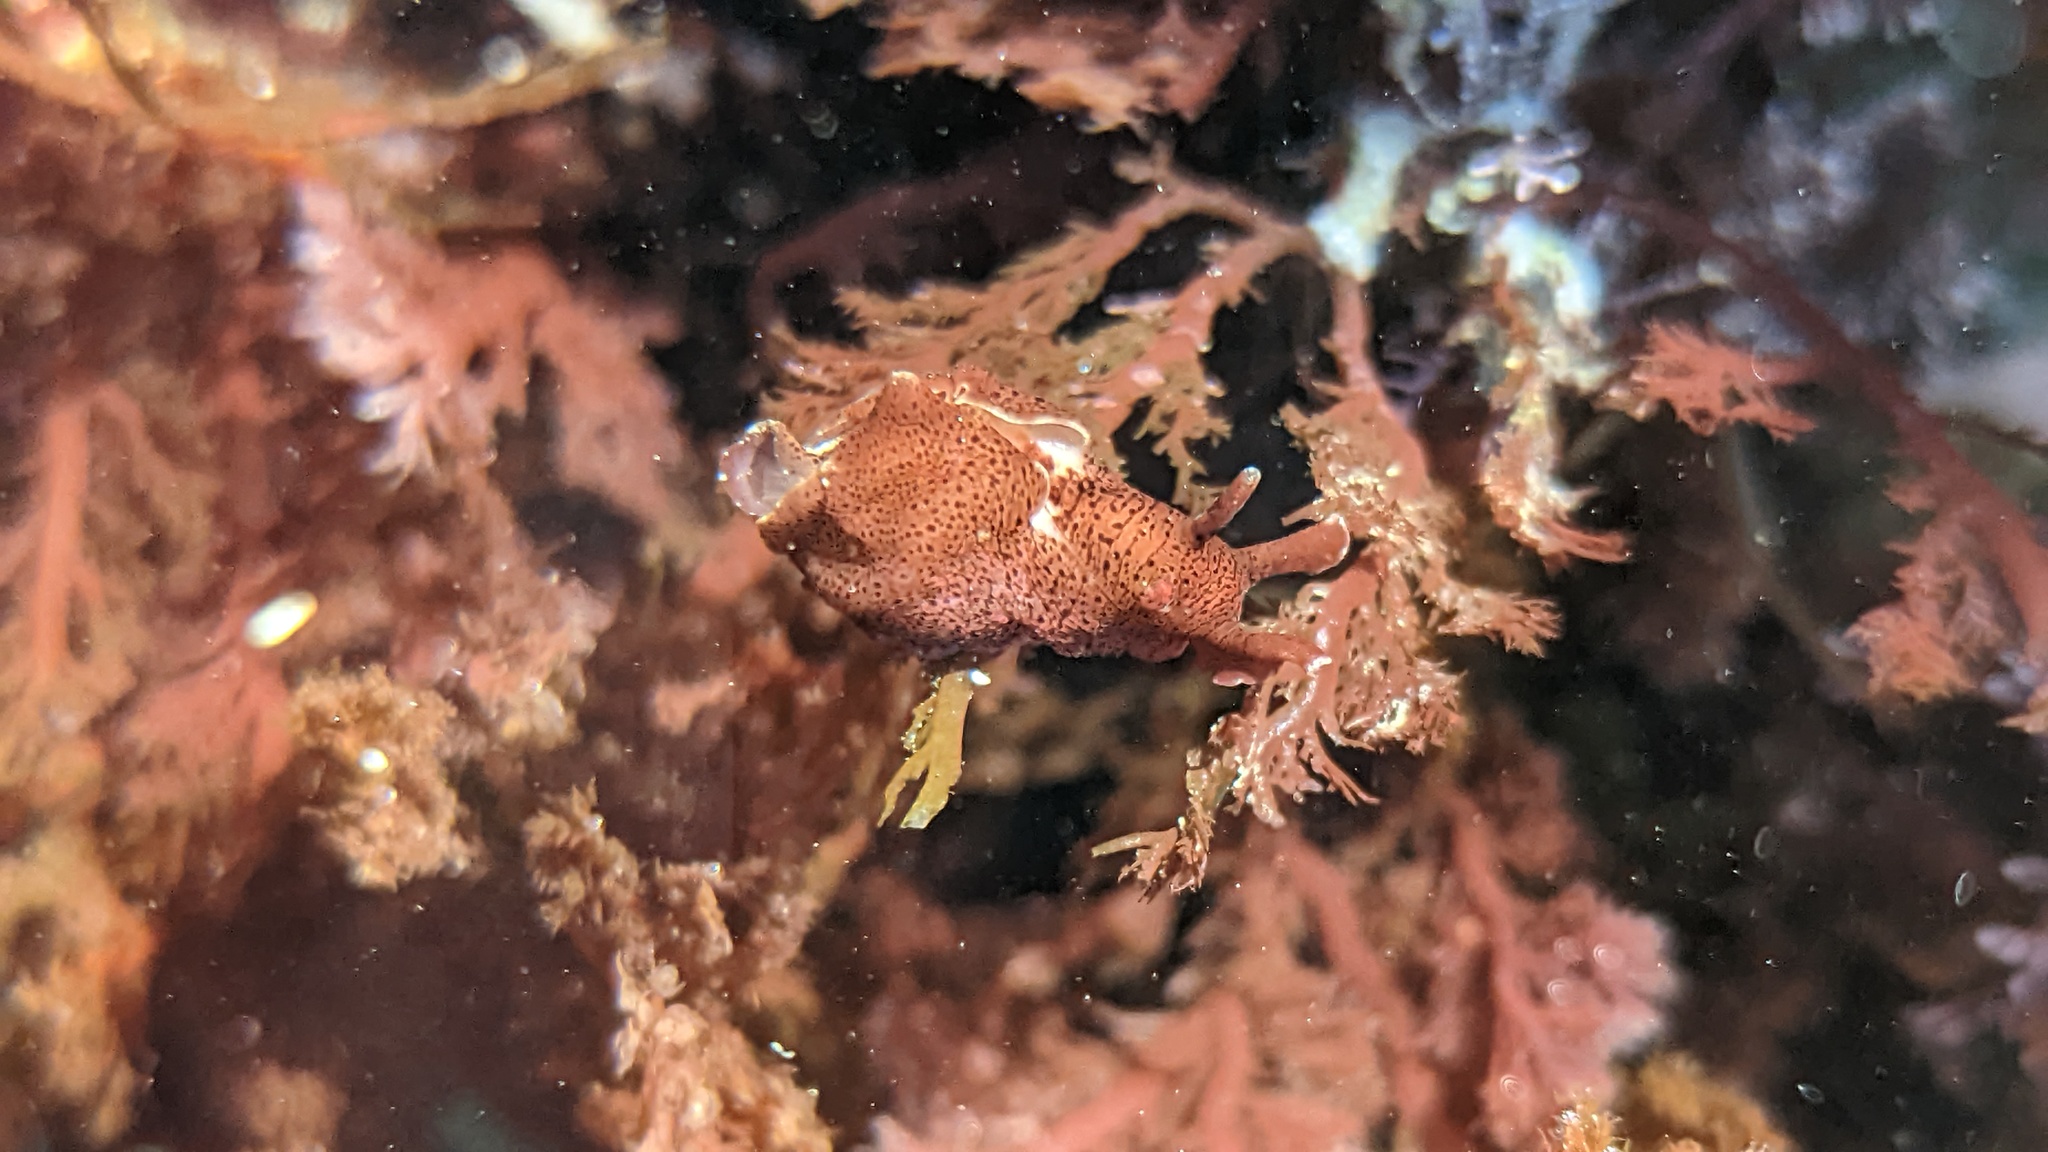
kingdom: Animalia
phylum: Mollusca
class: Gastropoda
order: Aplysiida
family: Aplysiidae
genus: Aplysia
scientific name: Aplysia californica
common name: California seahare
